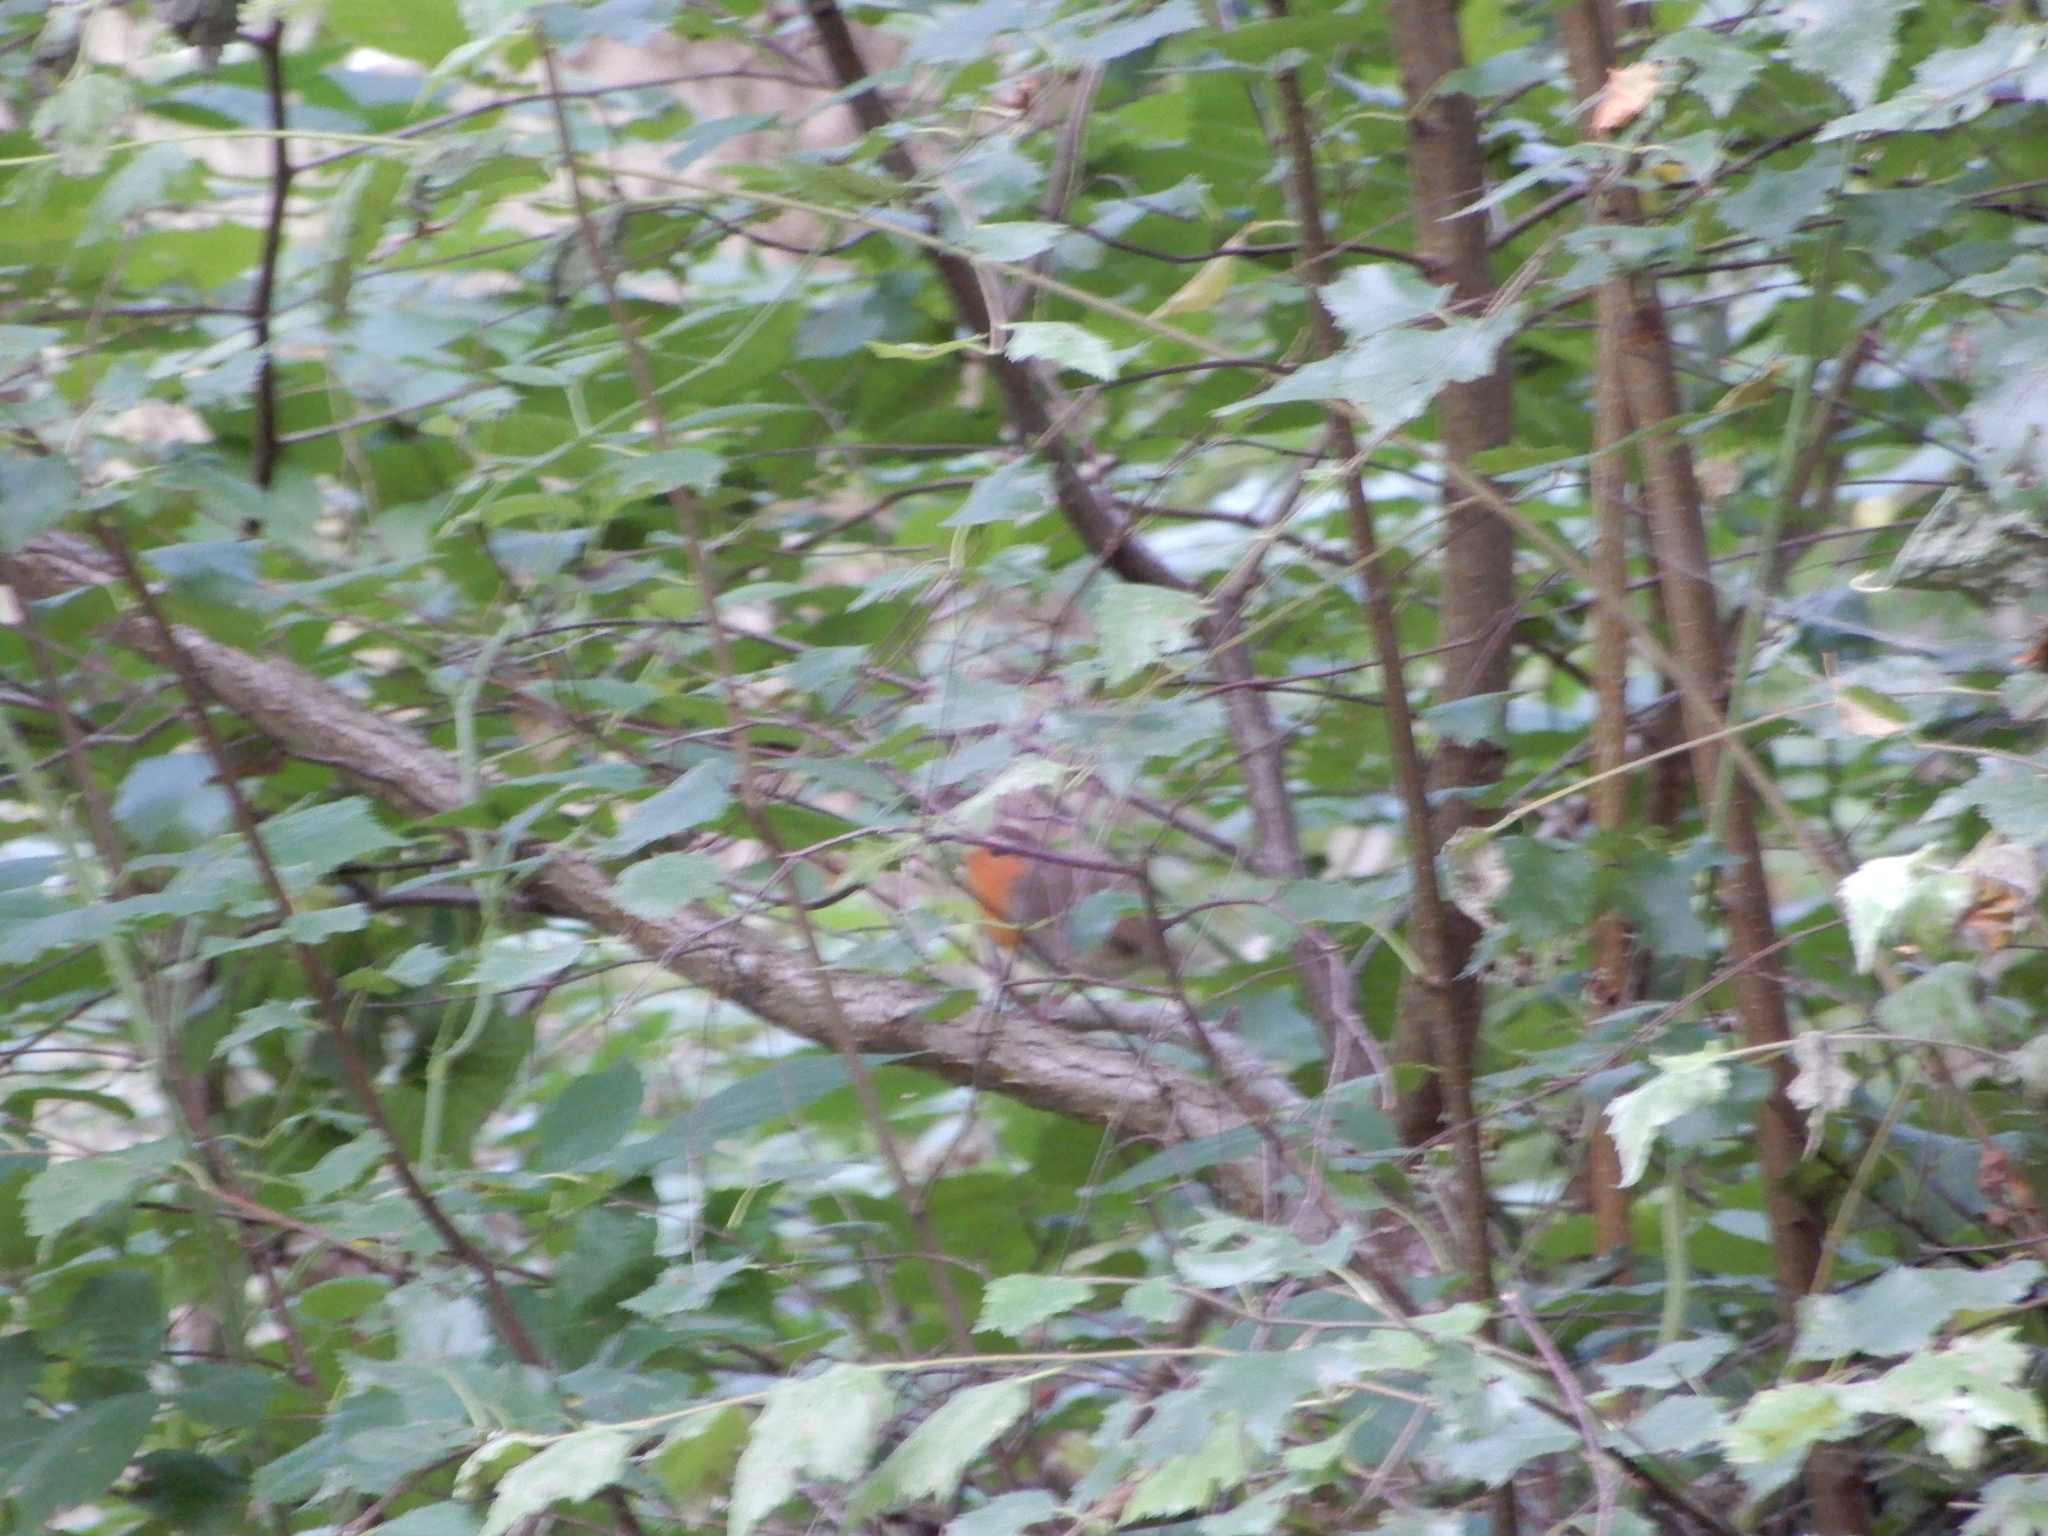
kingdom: Animalia
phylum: Chordata
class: Aves
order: Passeriformes
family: Muscicapidae
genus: Erithacus
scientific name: Erithacus rubecula
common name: European robin
